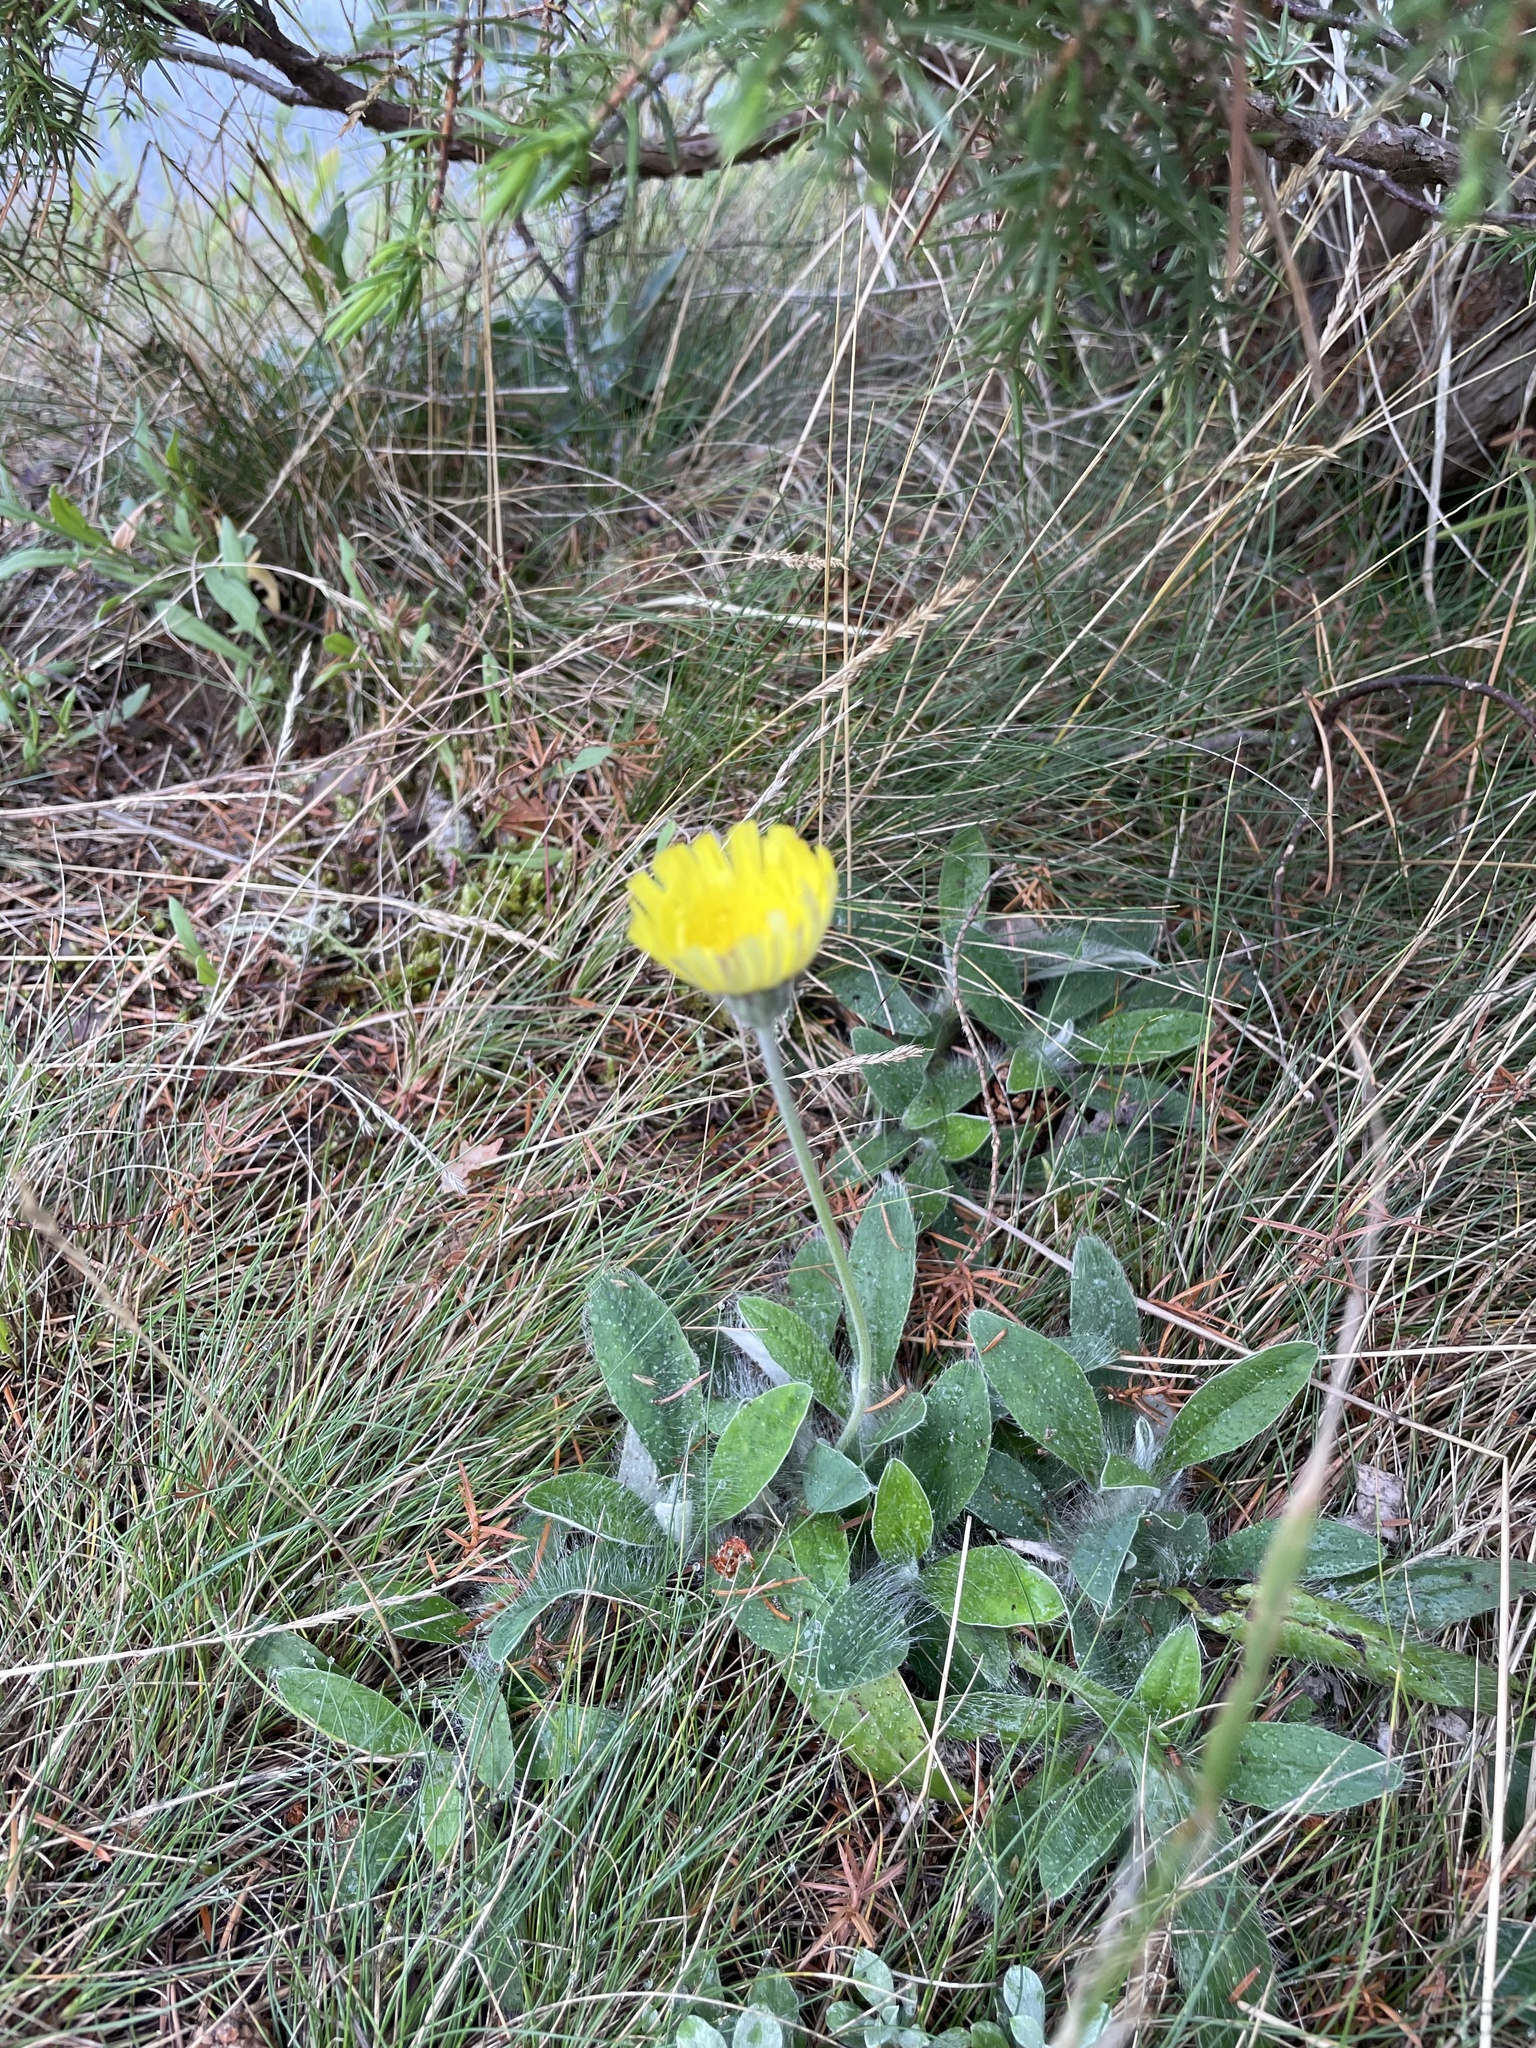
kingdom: Plantae
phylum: Tracheophyta
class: Magnoliopsida
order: Asterales
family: Asteraceae
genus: Pilosella
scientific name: Pilosella officinarum
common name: Mouse-ear hawkweed
